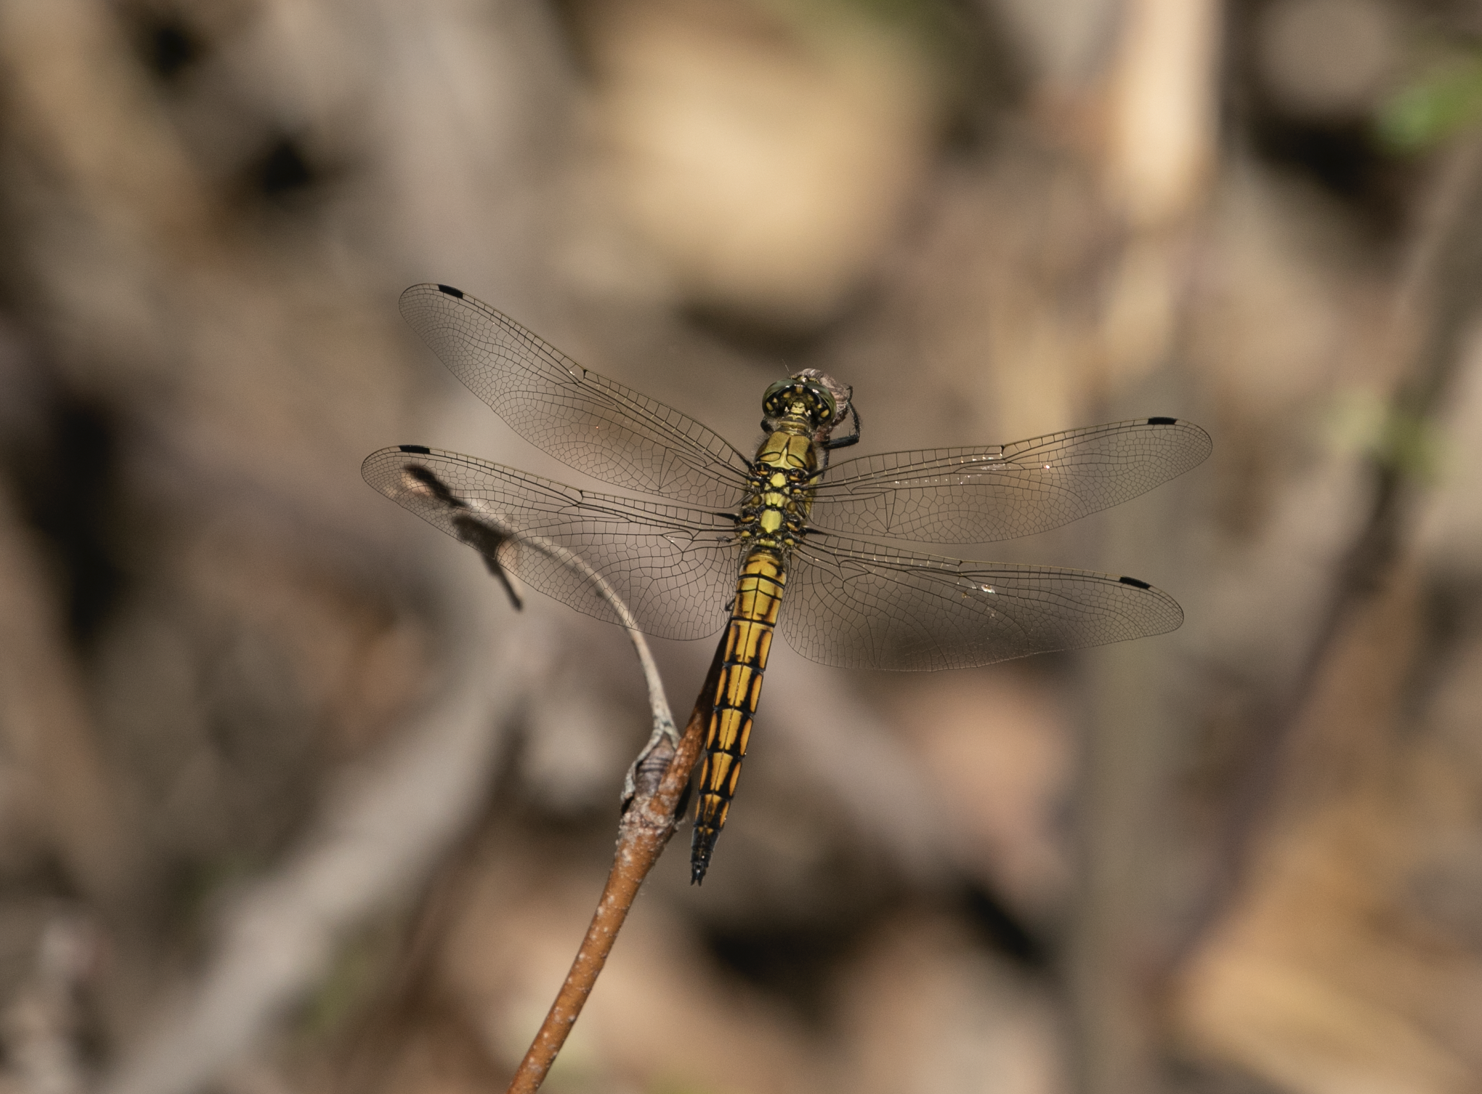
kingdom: Animalia
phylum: Arthropoda
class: Insecta
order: Odonata
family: Libellulidae
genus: Orthetrum
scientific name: Orthetrum cancellatum
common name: Black-tailed skimmer
